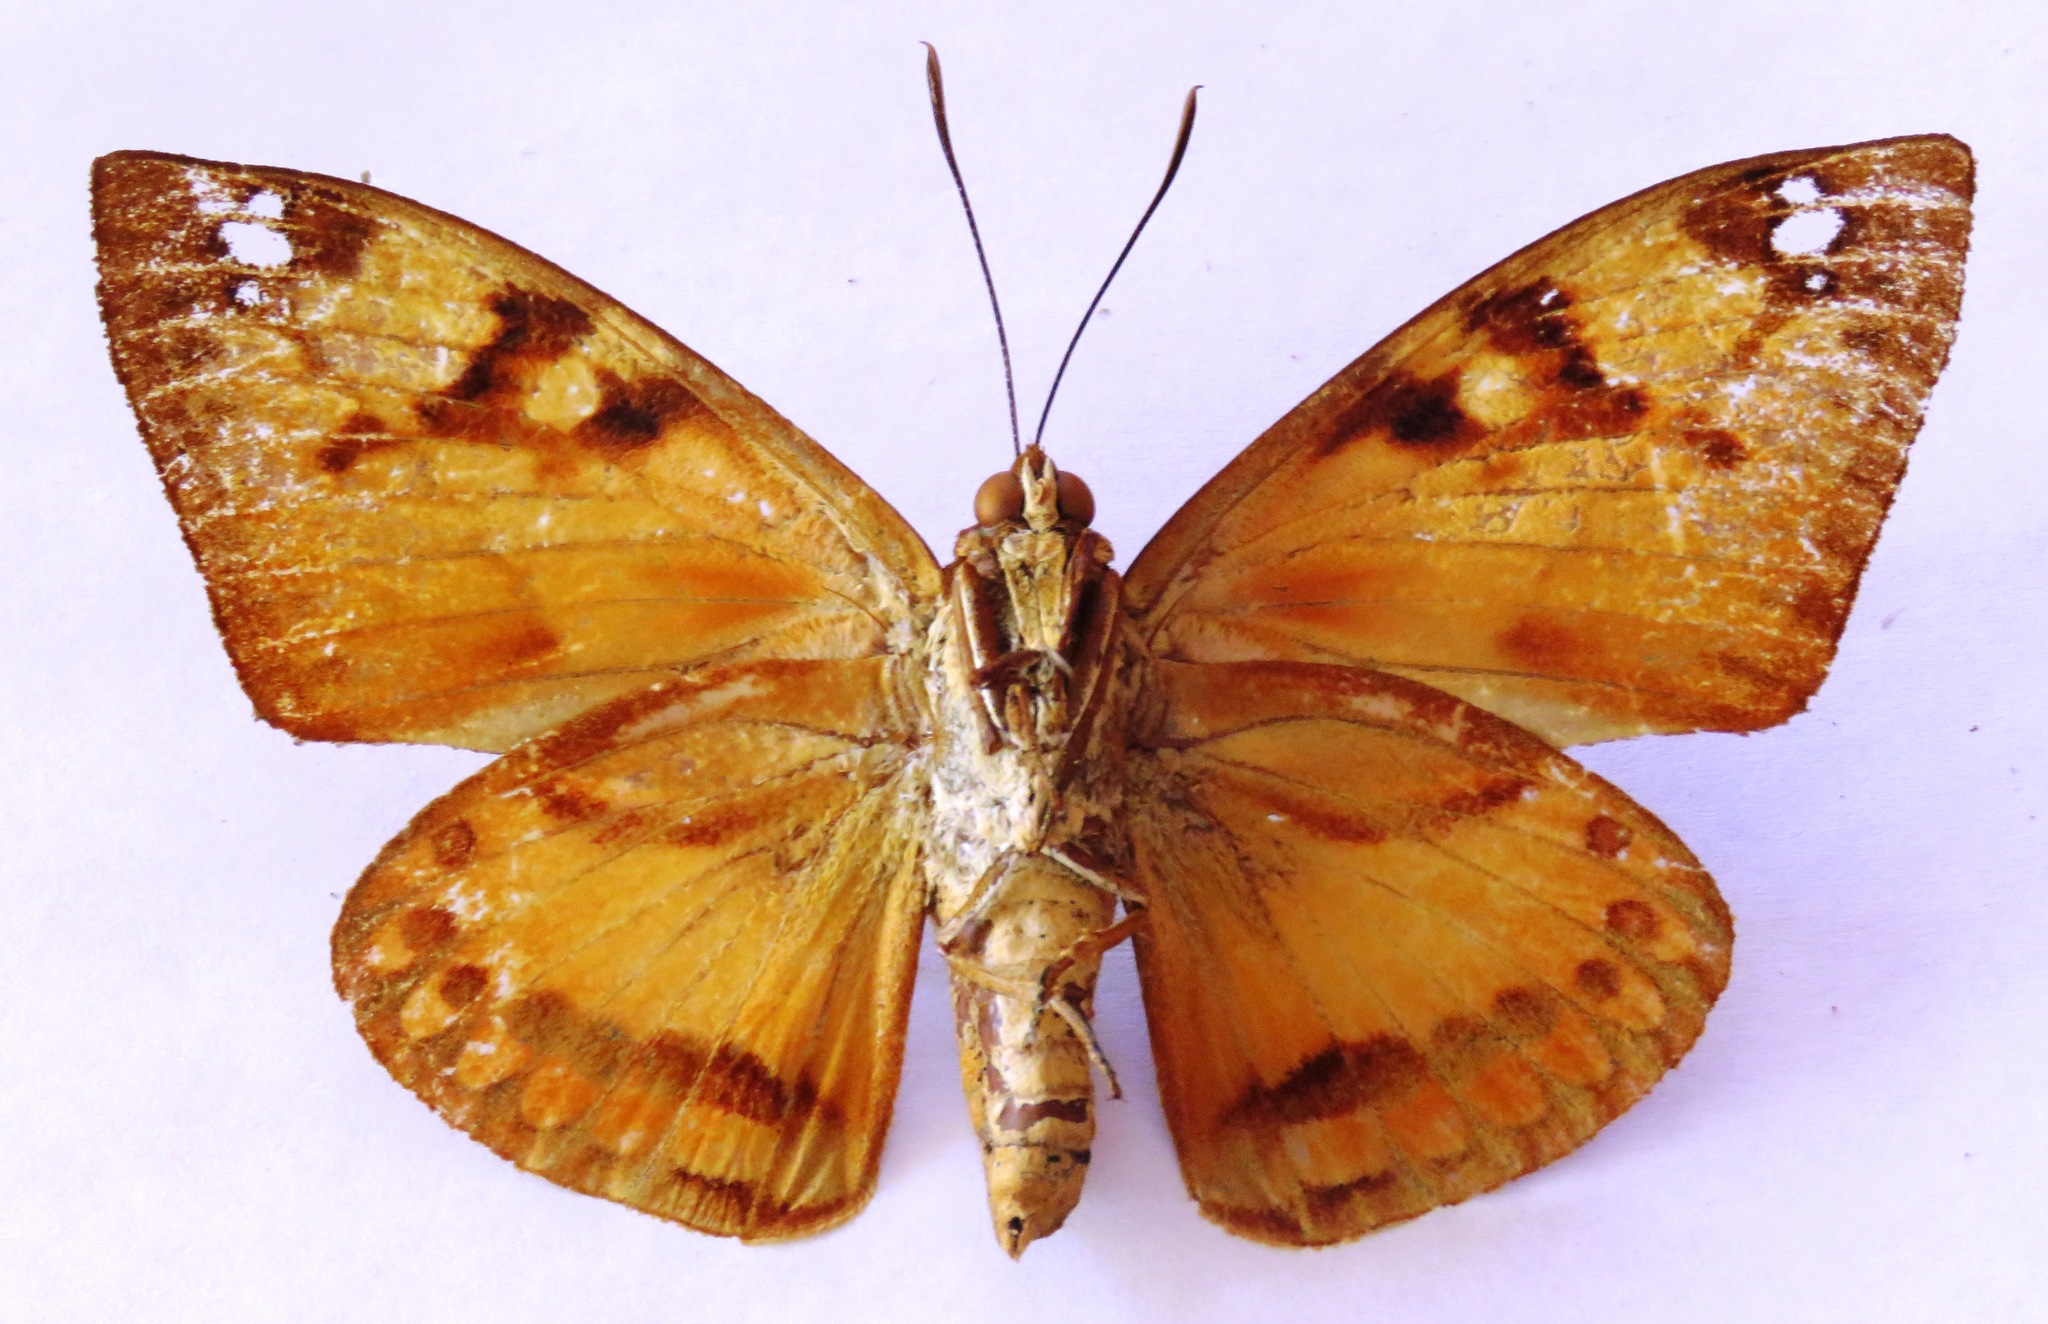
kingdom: Animalia
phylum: Arthropoda
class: Insecta
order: Lepidoptera
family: Castniidae
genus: Athis
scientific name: Athis clitarcha
